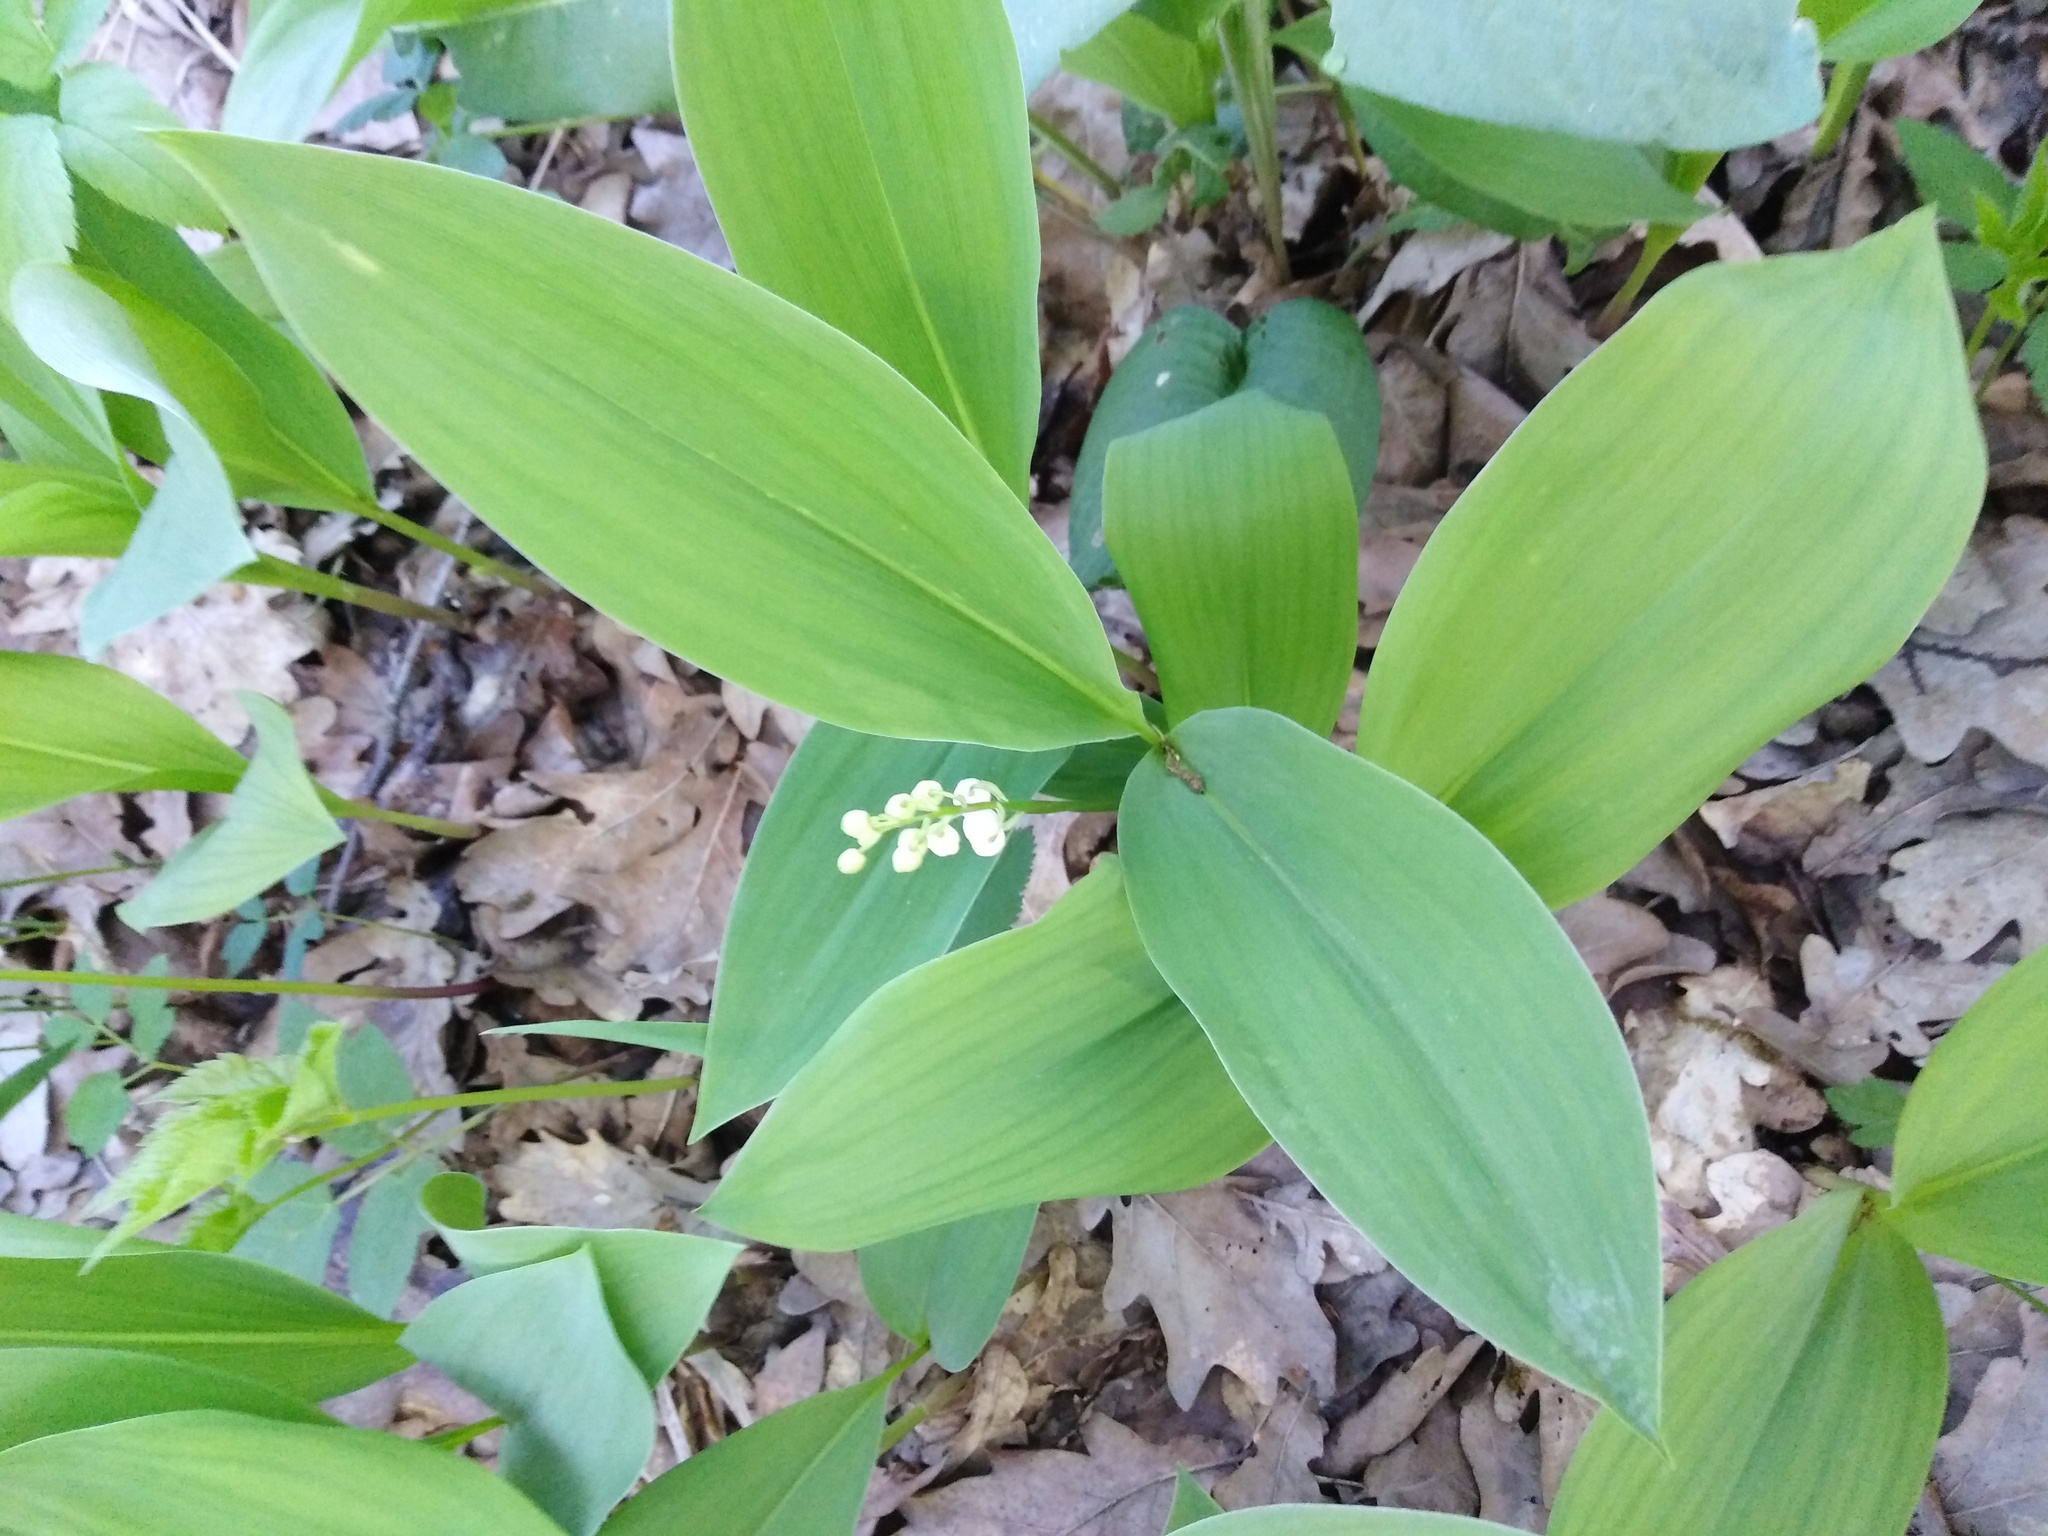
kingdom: Plantae
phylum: Tracheophyta
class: Liliopsida
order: Asparagales
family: Asparagaceae
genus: Convallaria
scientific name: Convallaria majalis
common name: Lily-of-the-valley
